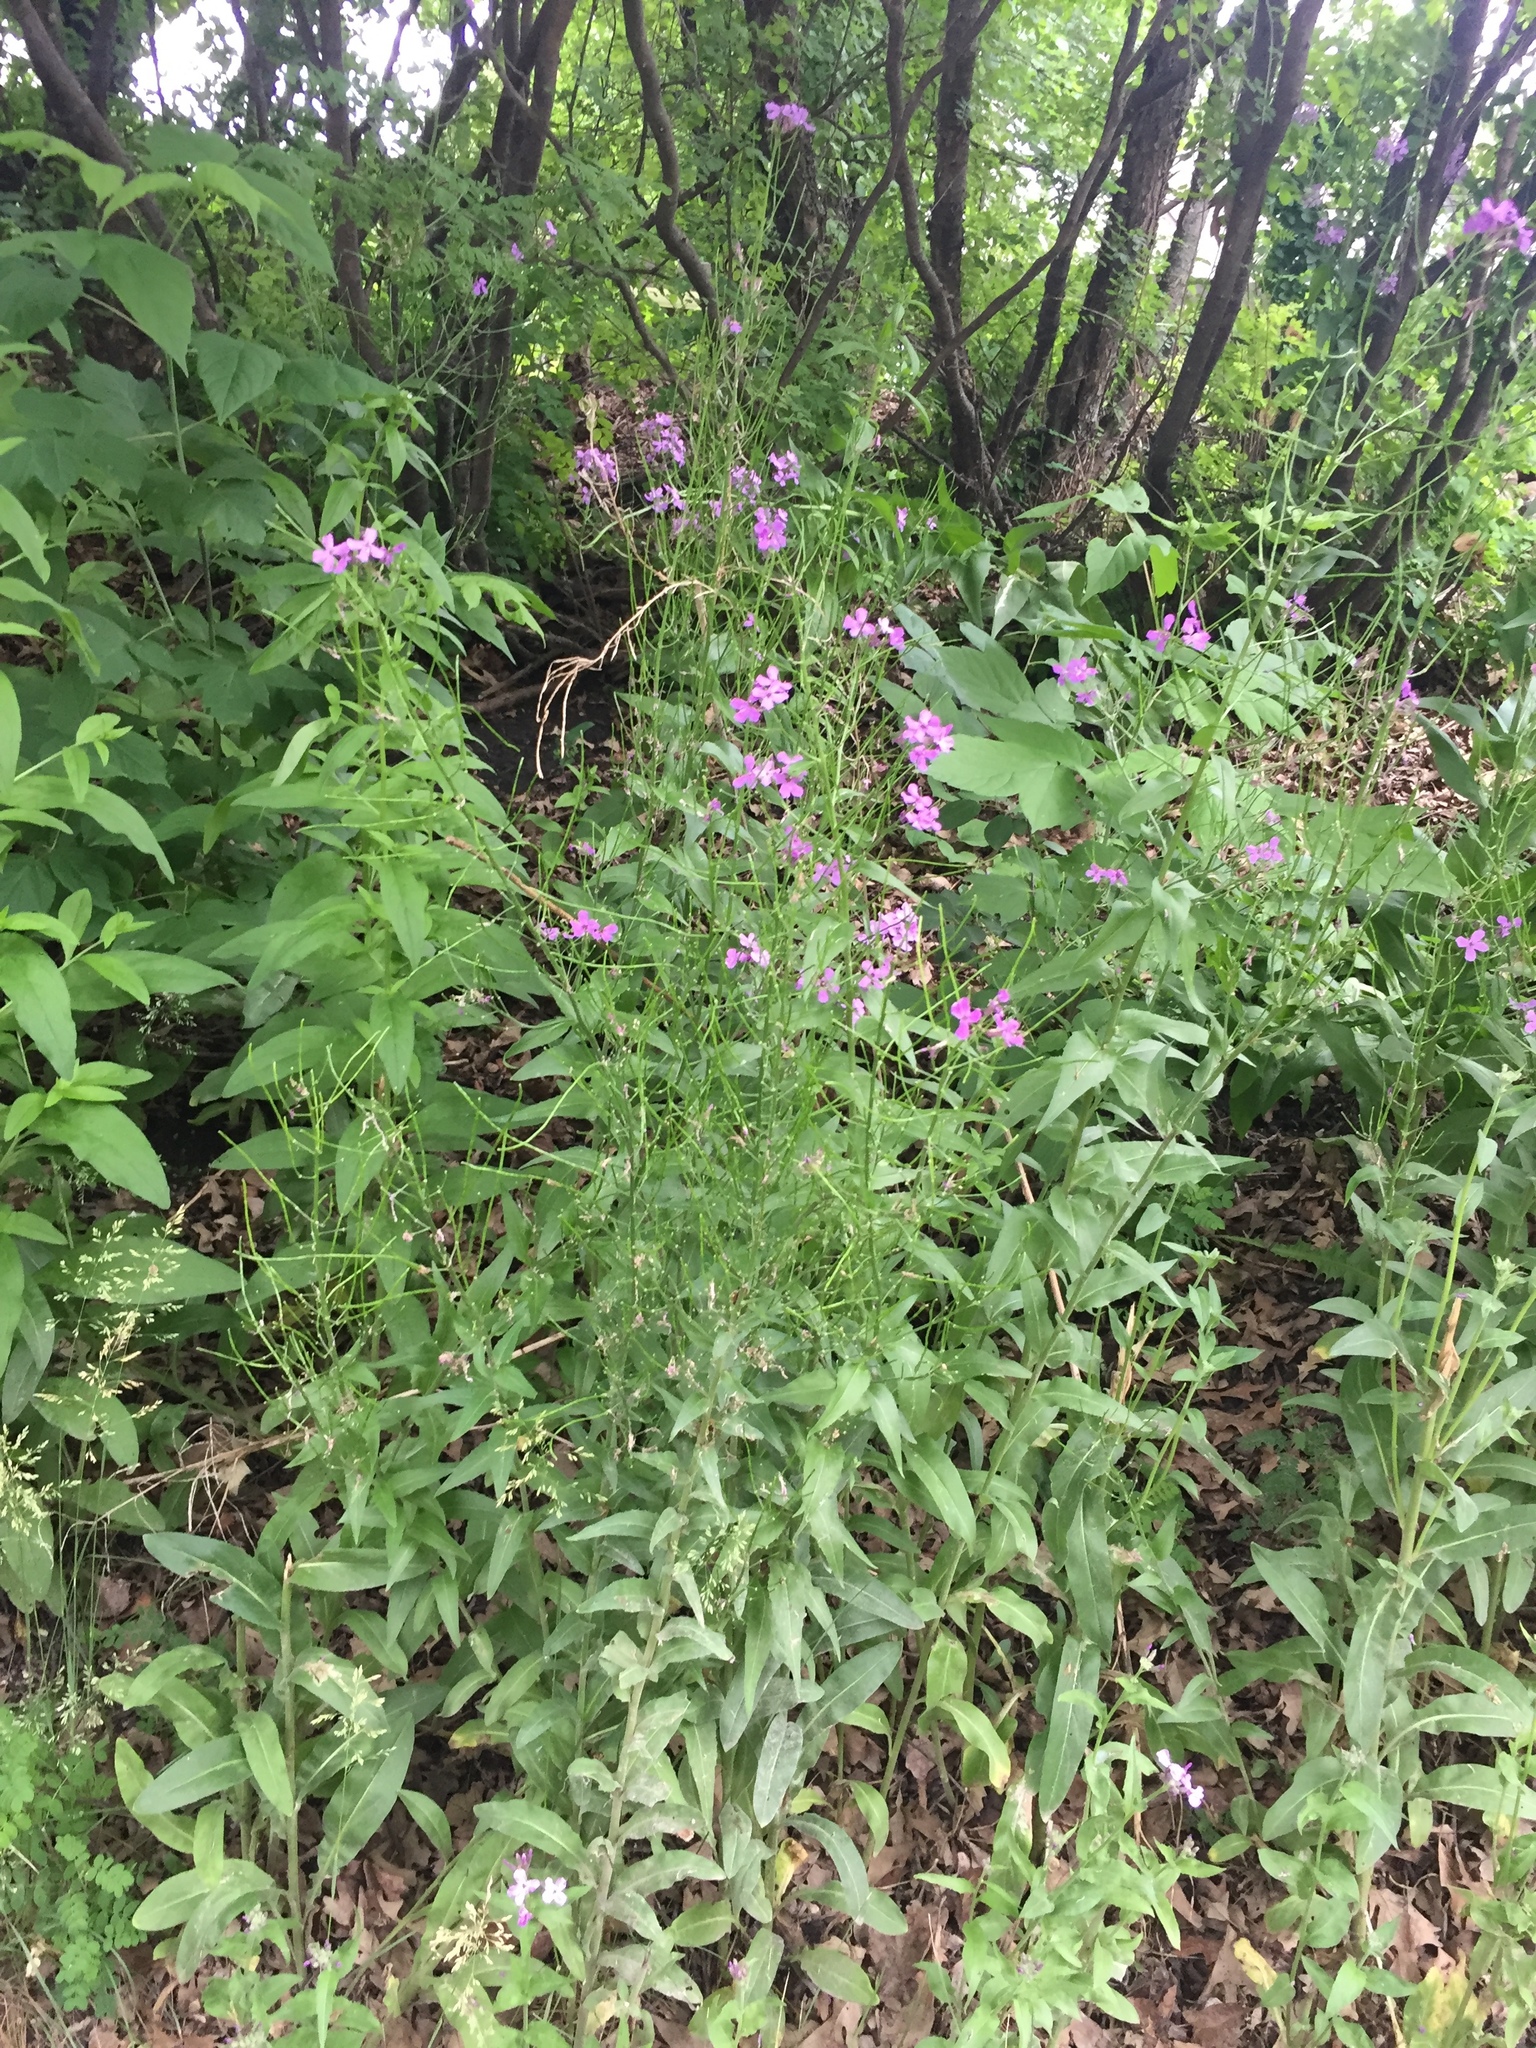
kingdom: Plantae
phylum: Tracheophyta
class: Magnoliopsida
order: Brassicales
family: Brassicaceae
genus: Hesperis
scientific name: Hesperis matronalis
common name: Dame's-violet
